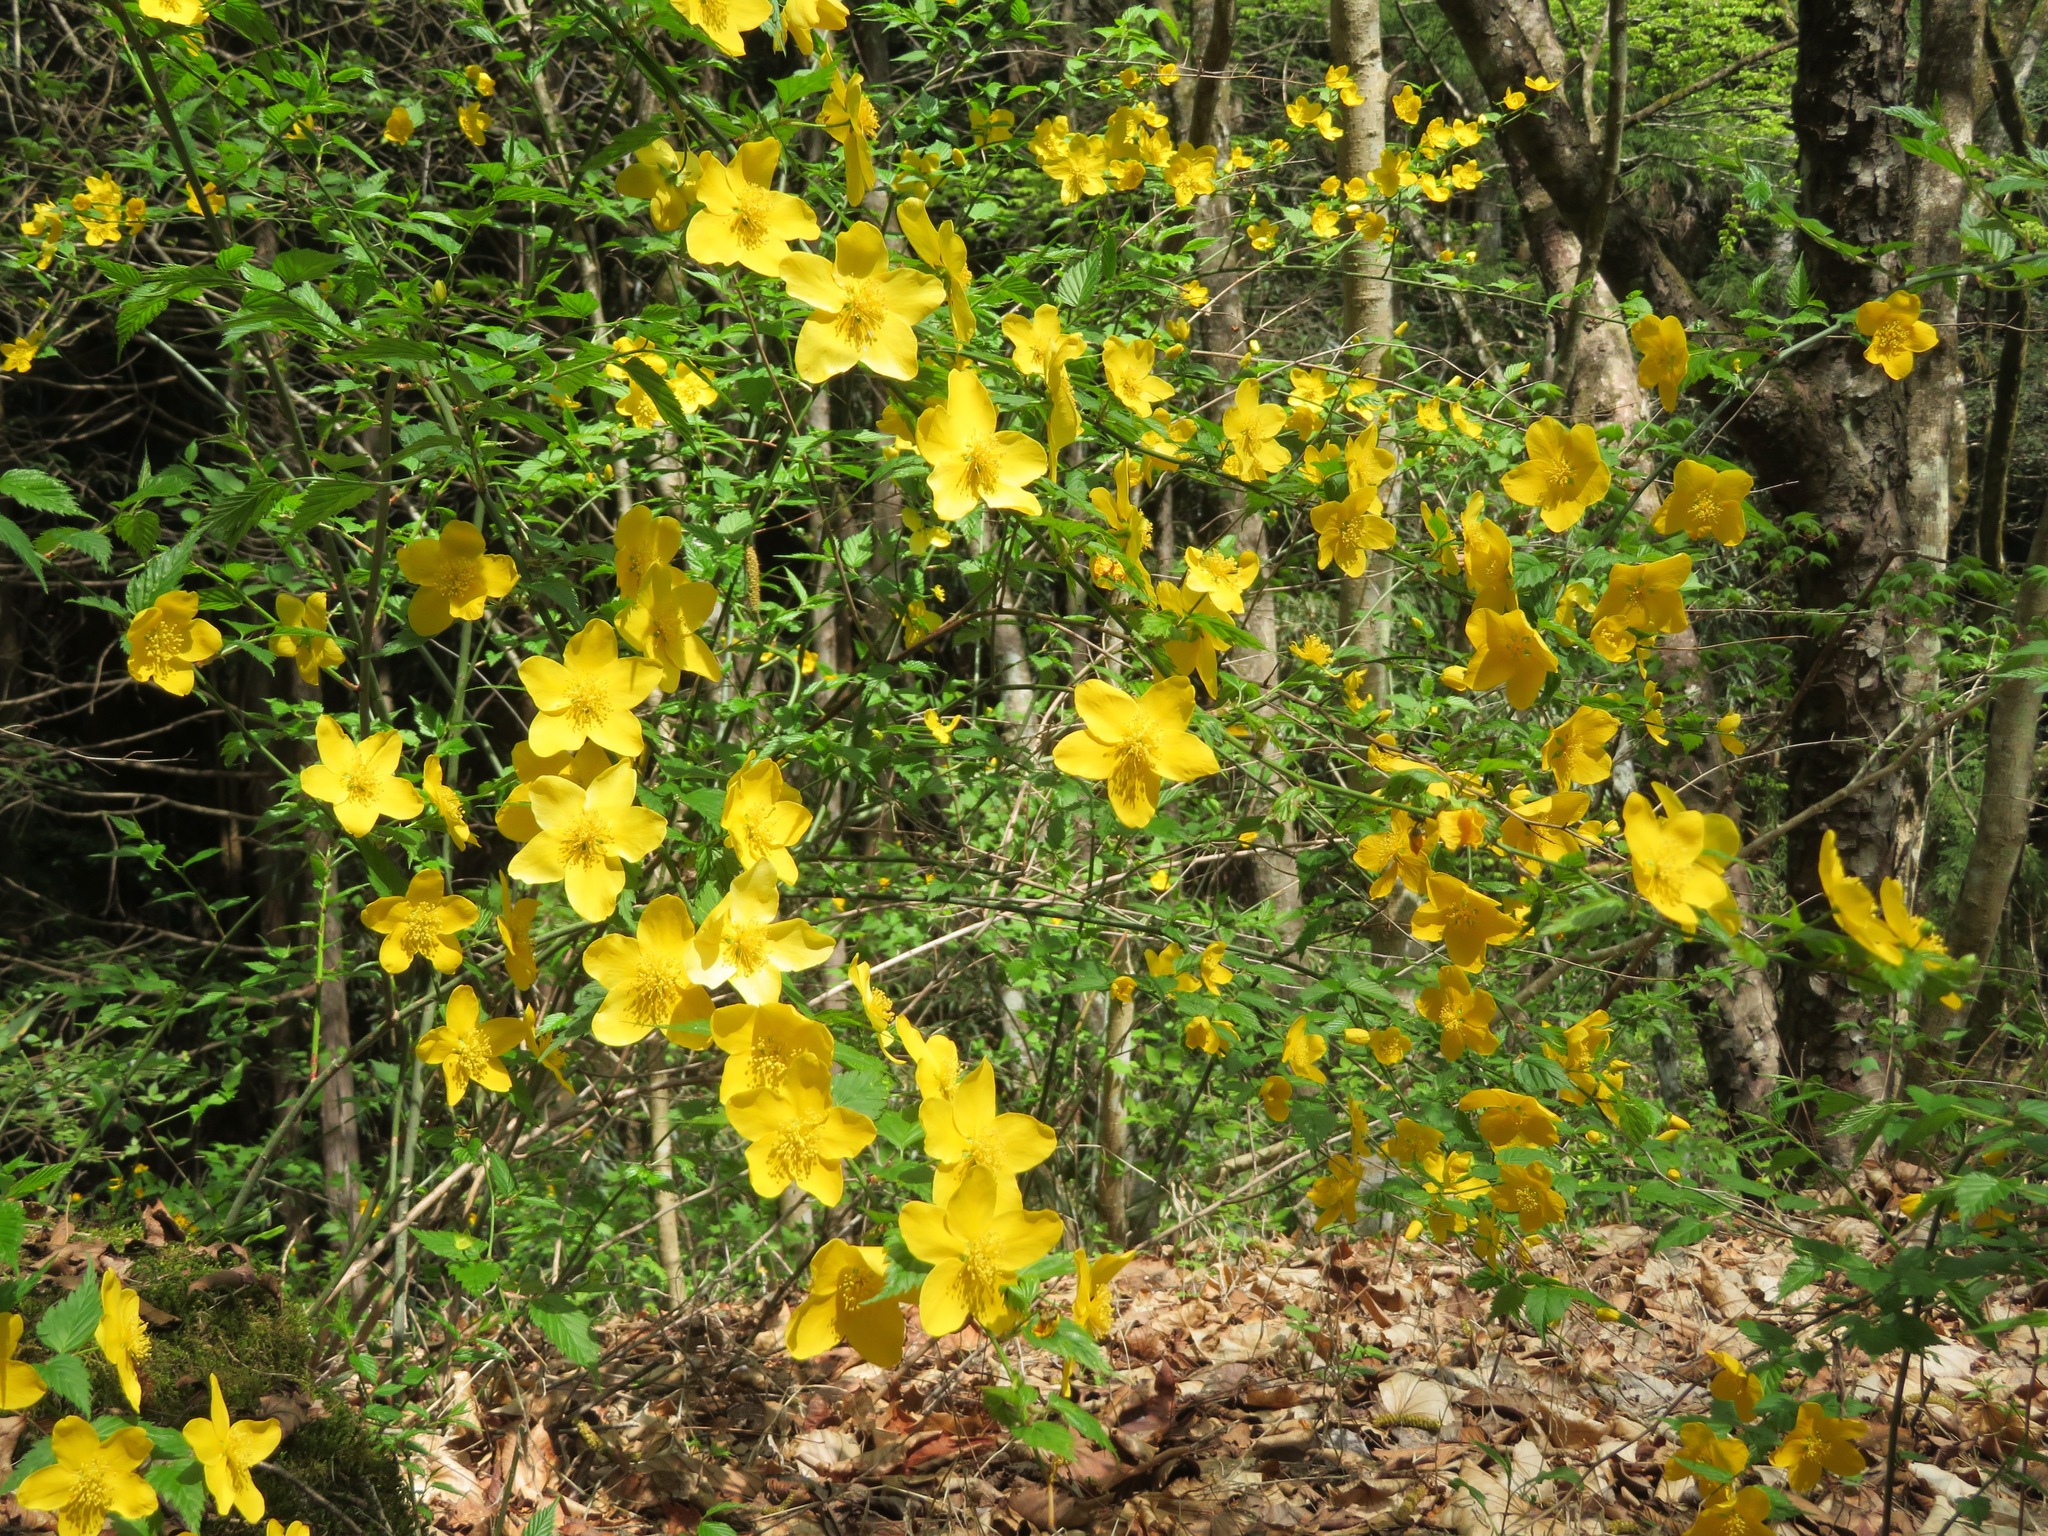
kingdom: Plantae
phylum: Tracheophyta
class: Magnoliopsida
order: Rosales
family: Rosaceae
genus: Kerria
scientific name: Kerria japonica
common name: Japanese kerria
